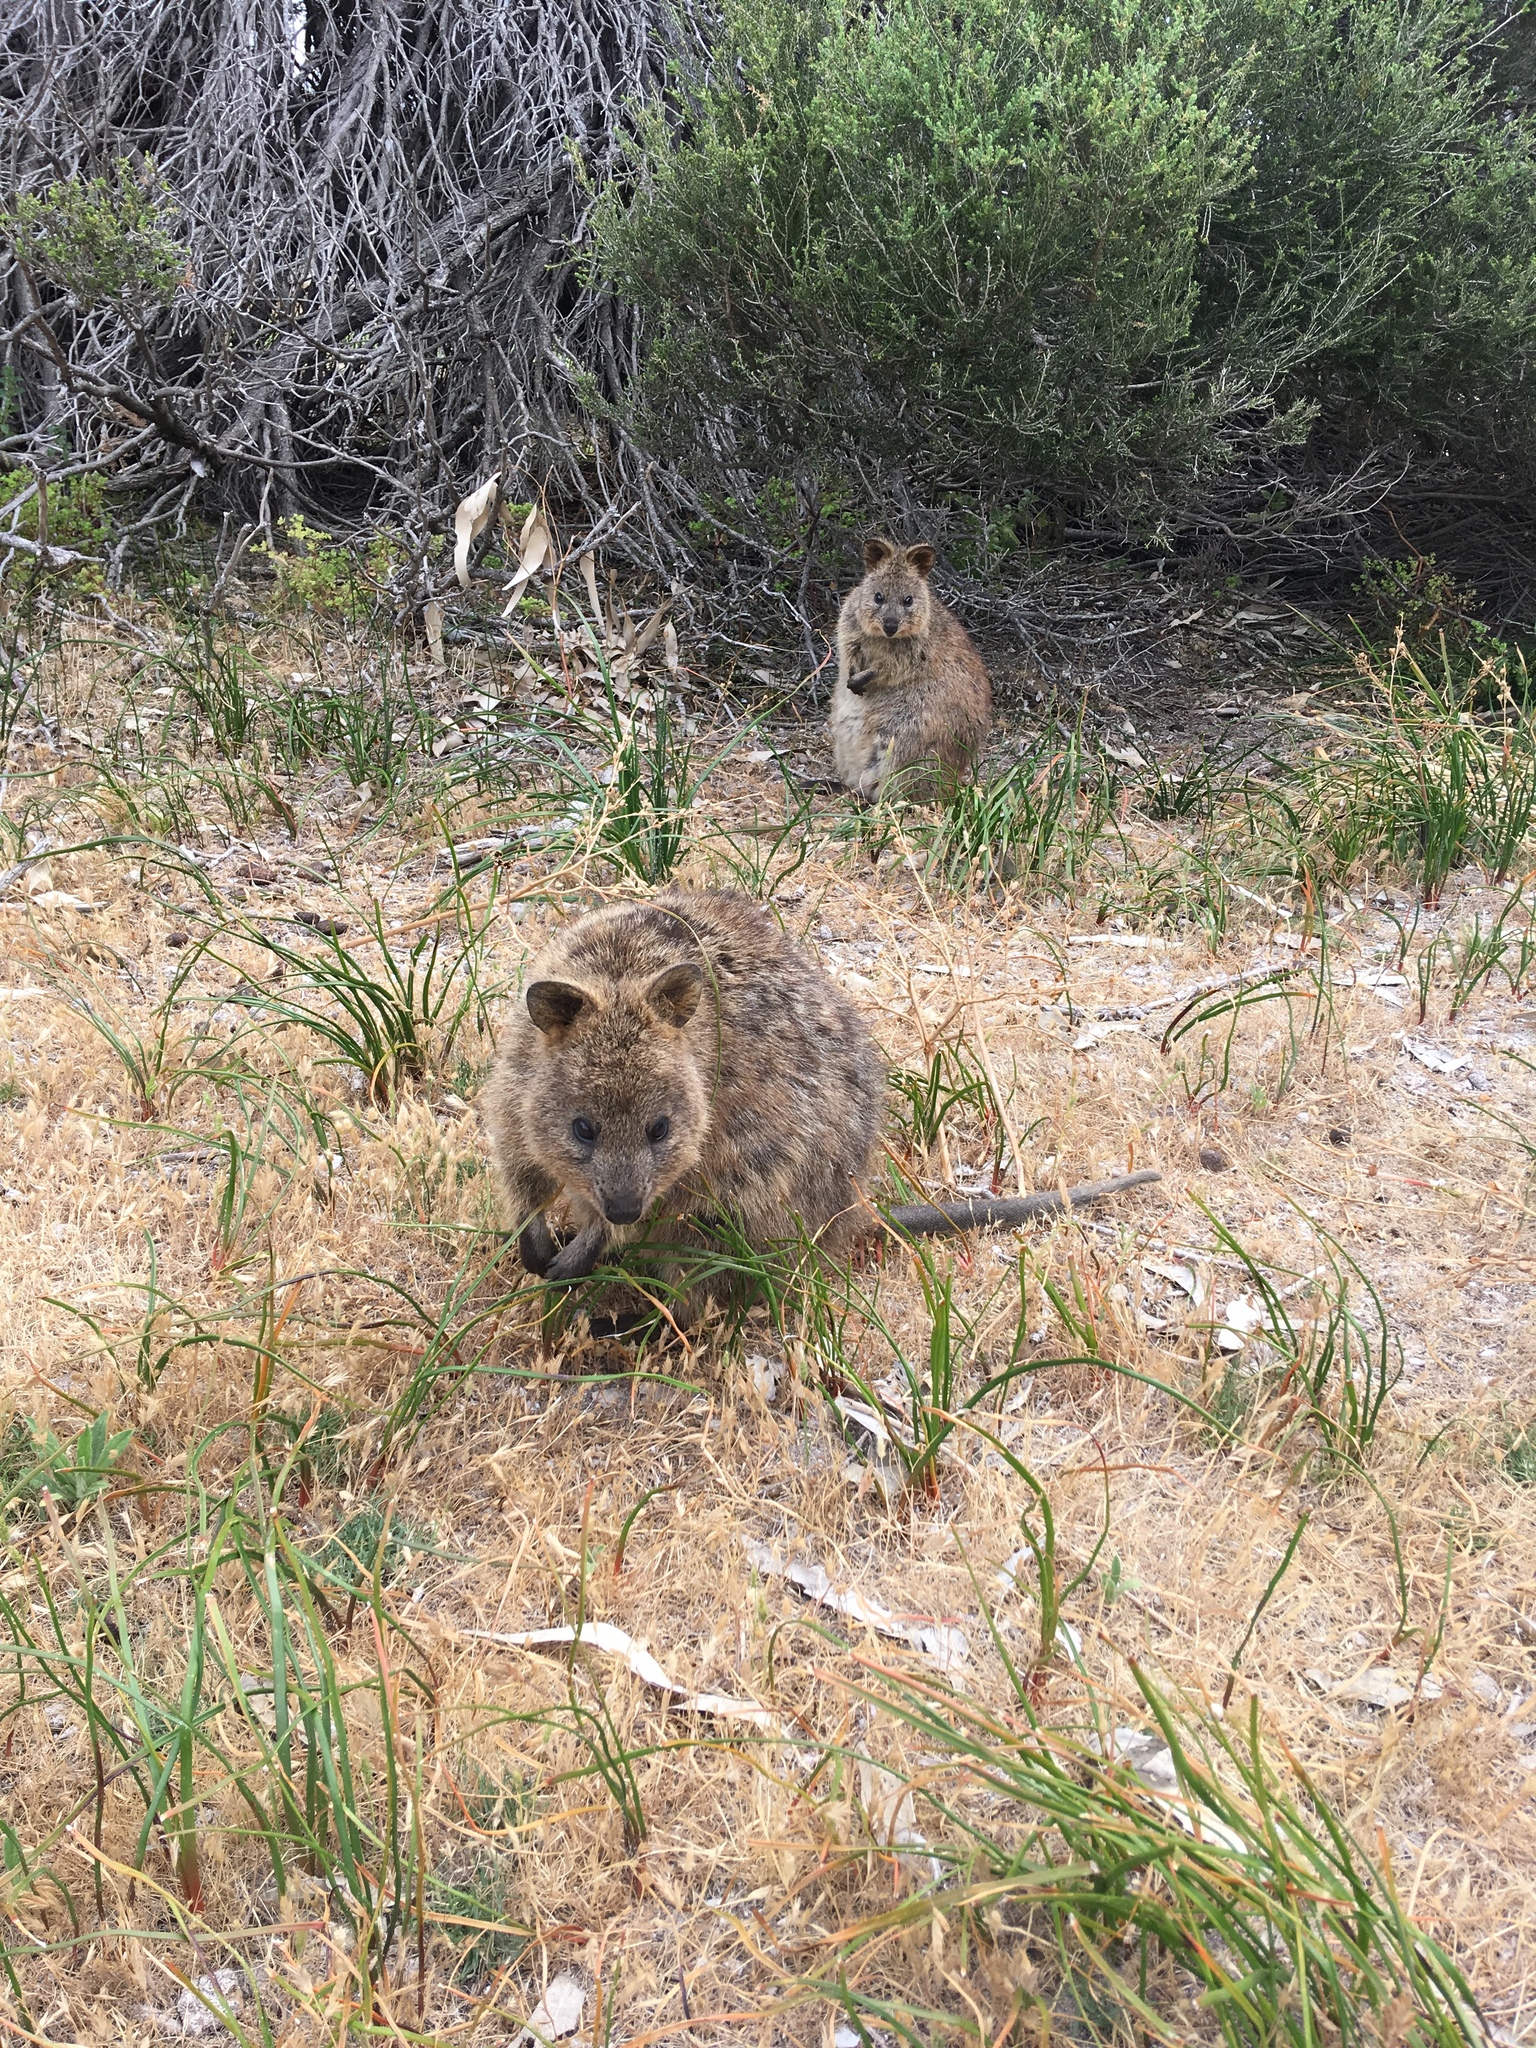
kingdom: Animalia
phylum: Chordata
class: Mammalia
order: Diprotodontia
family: Macropodidae
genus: Setonix
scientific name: Setonix brachyurus
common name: Quokka
